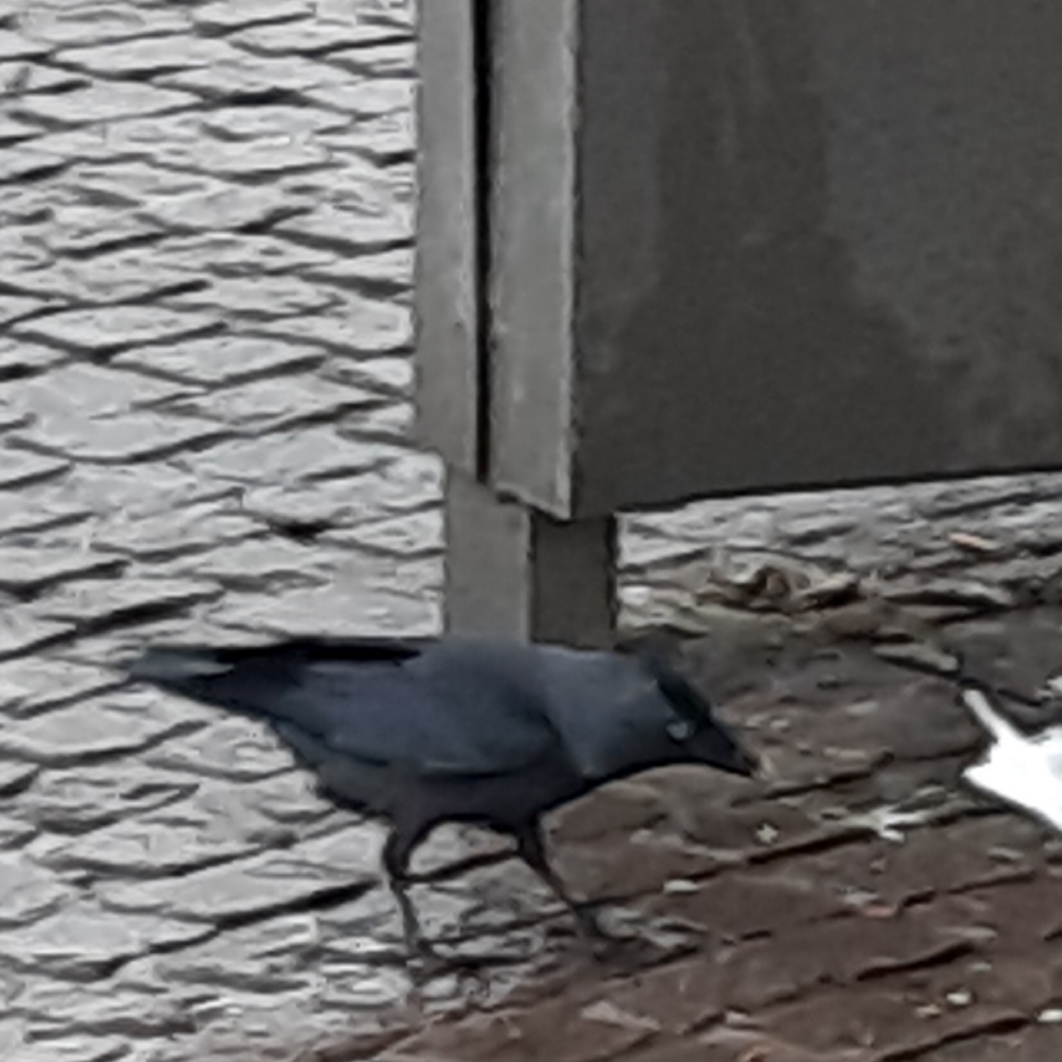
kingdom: Animalia
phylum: Chordata
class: Aves
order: Passeriformes
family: Corvidae
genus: Coloeus
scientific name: Coloeus monedula
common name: Western jackdaw
